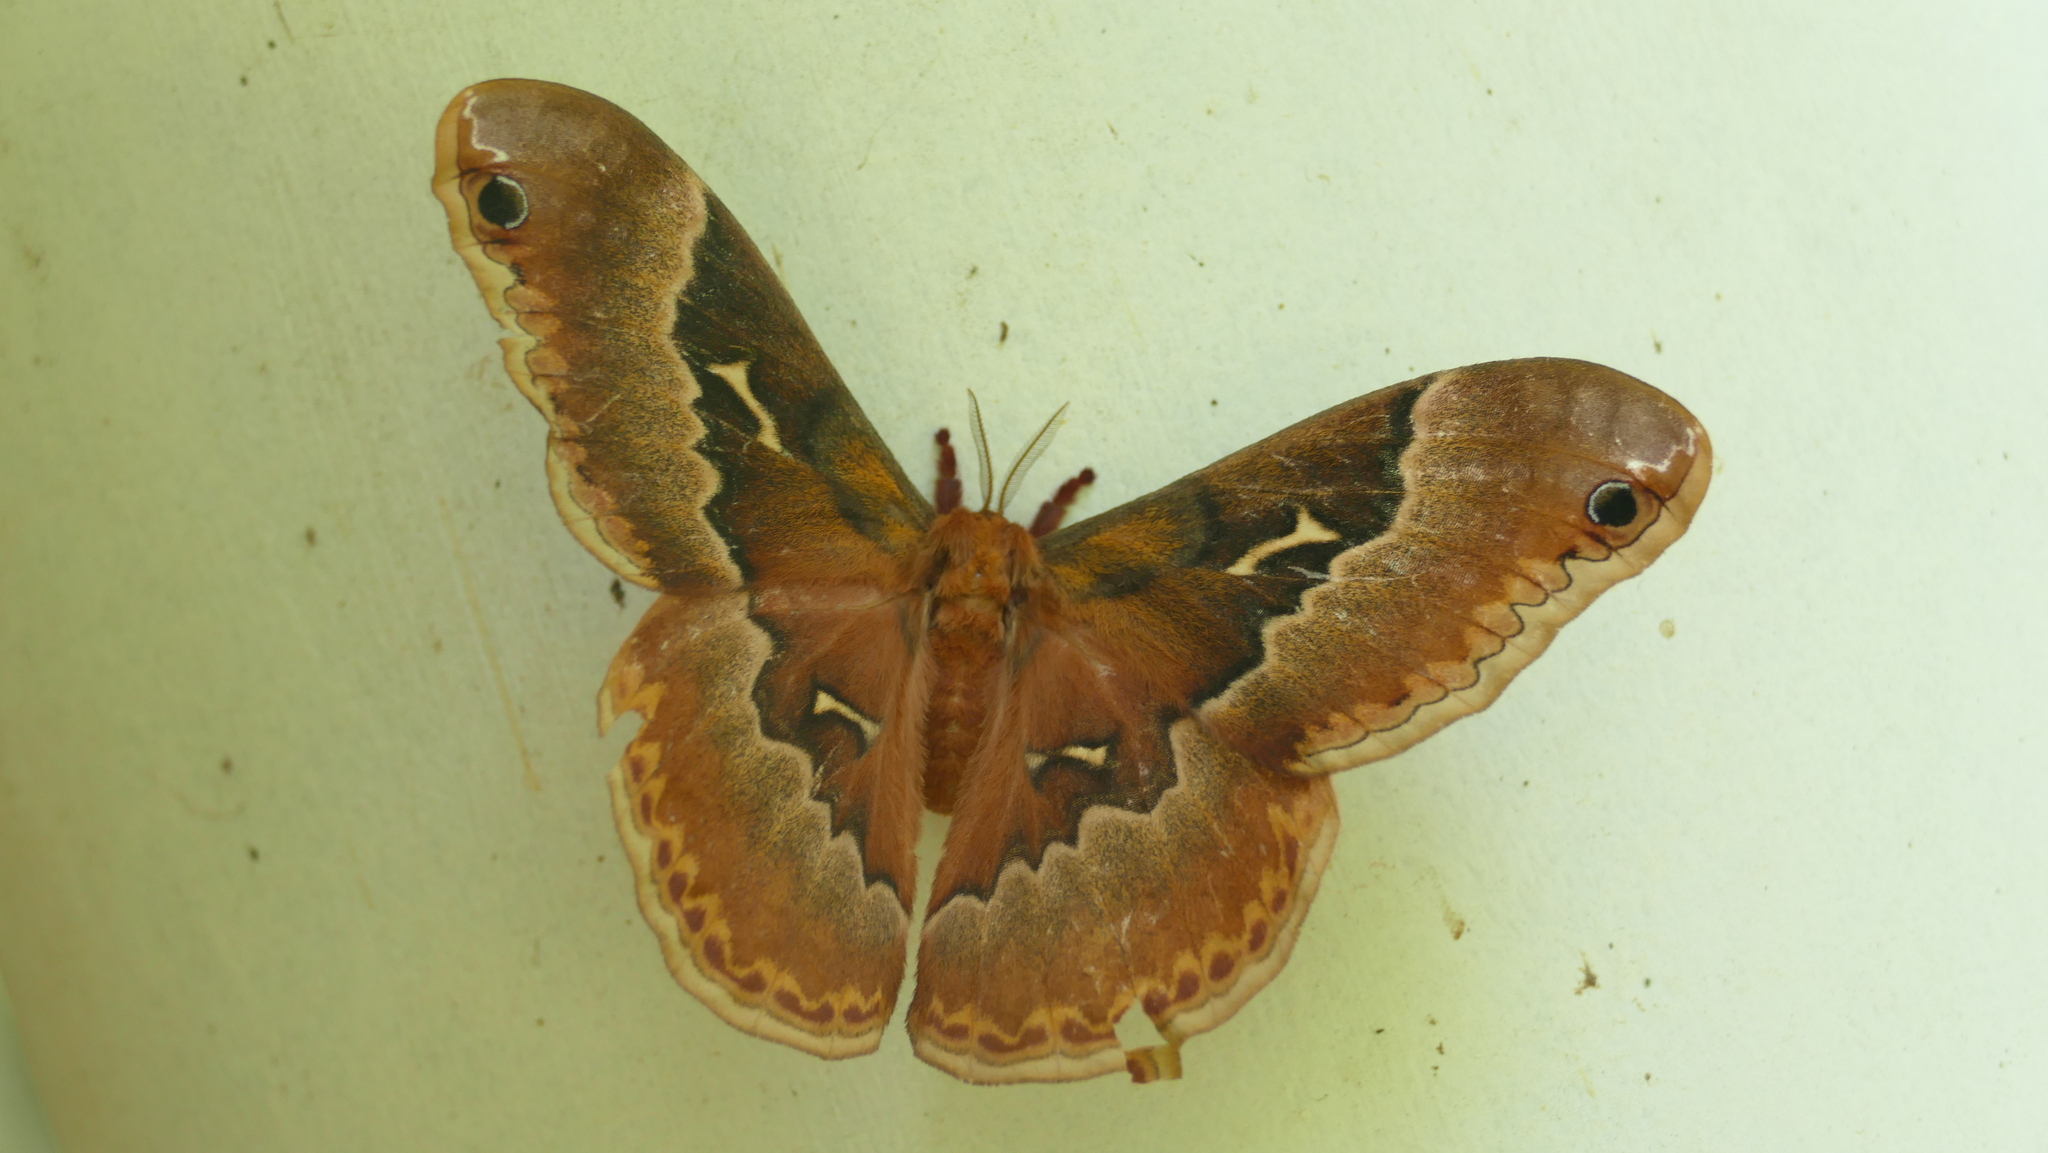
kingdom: Animalia
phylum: Arthropoda
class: Insecta
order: Lepidoptera
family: Saturniidae
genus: Callosamia
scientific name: Callosamia angulifera
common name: Tulip tree silkmoth
